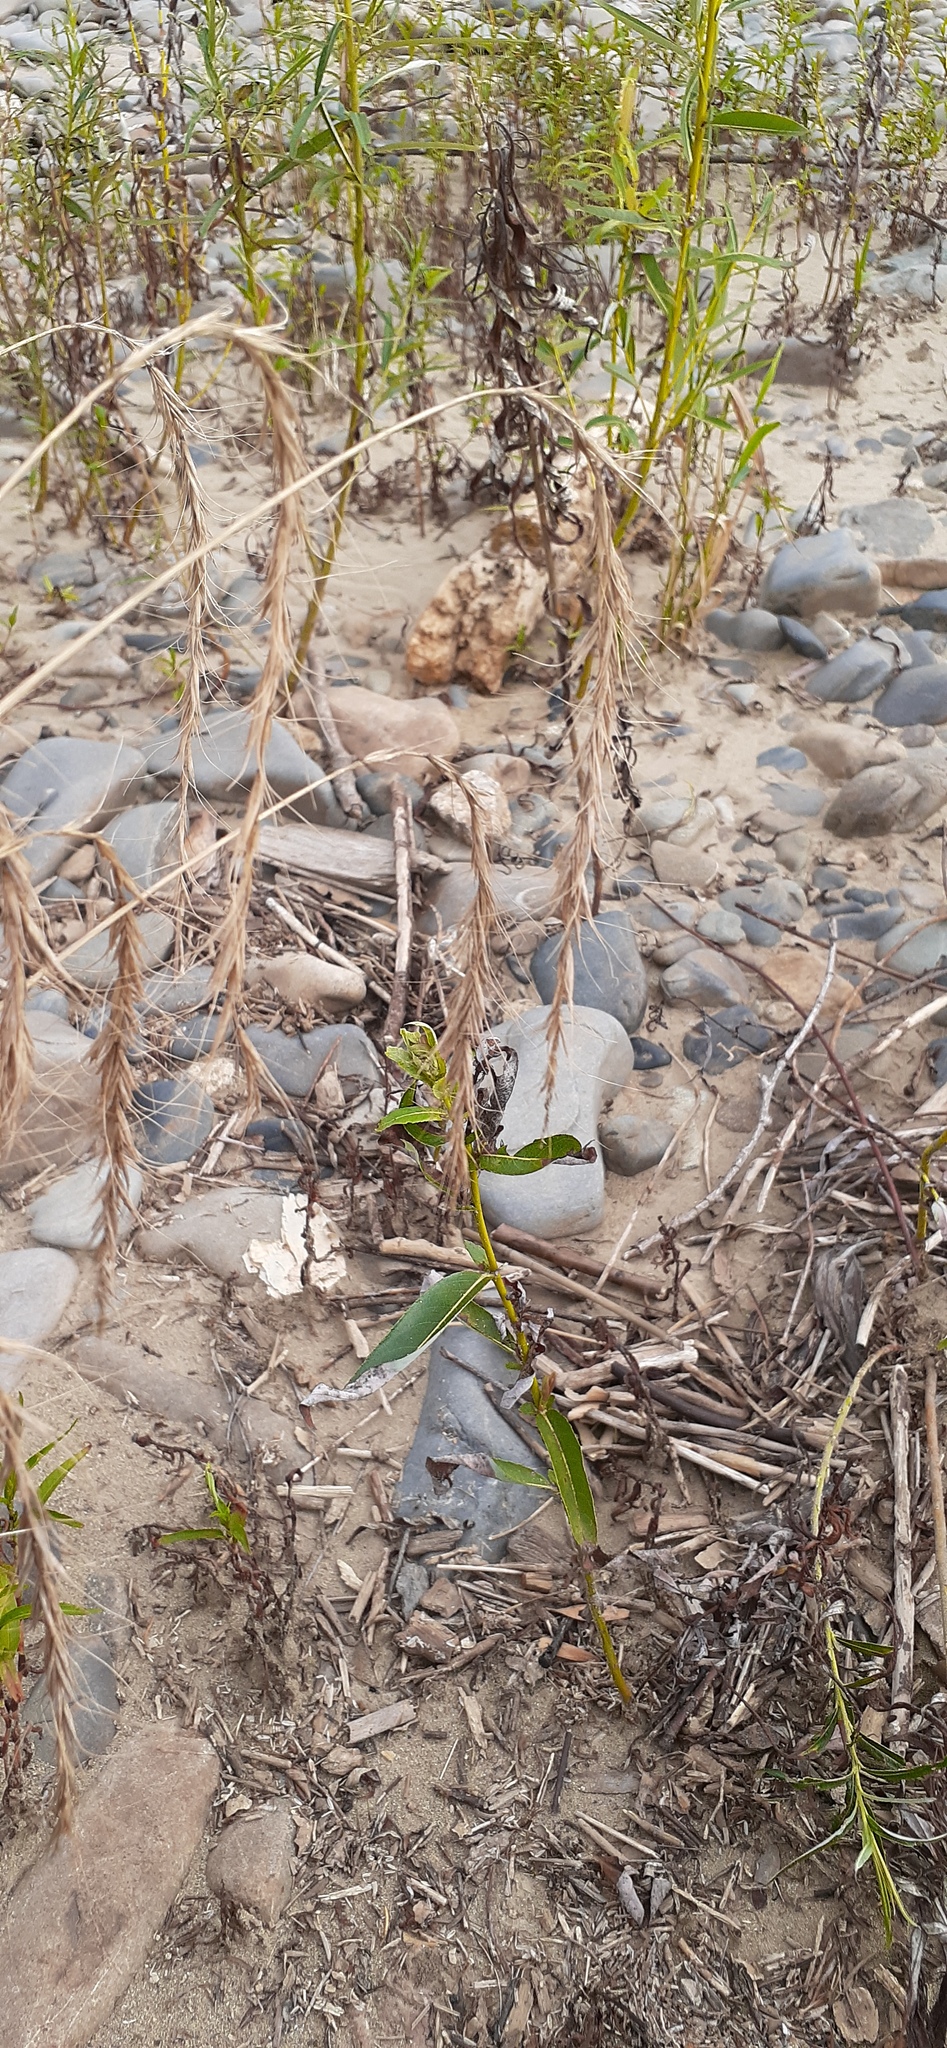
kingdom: Plantae
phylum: Tracheophyta
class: Liliopsida
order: Poales
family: Poaceae
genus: Elymus
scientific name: Elymus sibiricus
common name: Siberian wildrye
